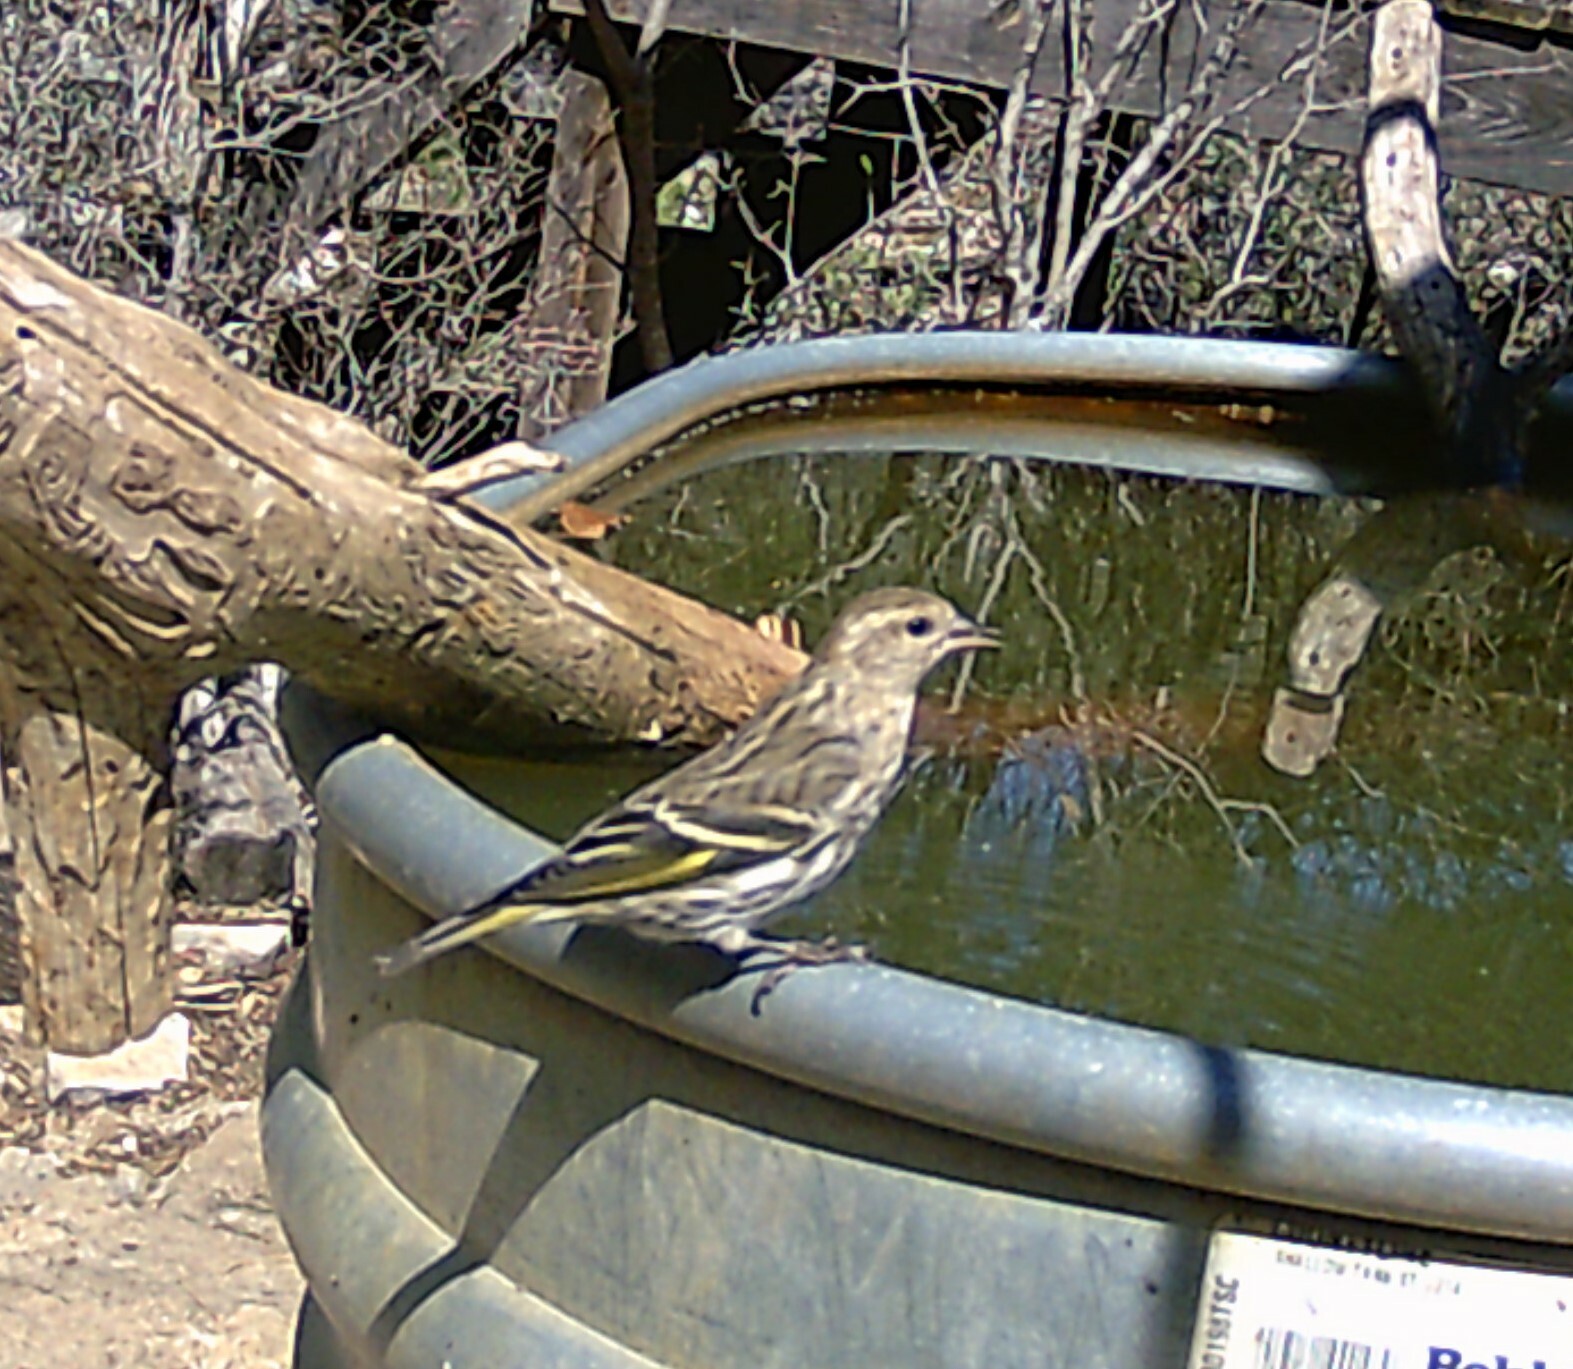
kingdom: Animalia
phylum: Chordata
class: Aves
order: Passeriformes
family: Fringillidae
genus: Spinus
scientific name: Spinus pinus
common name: Pine siskin
